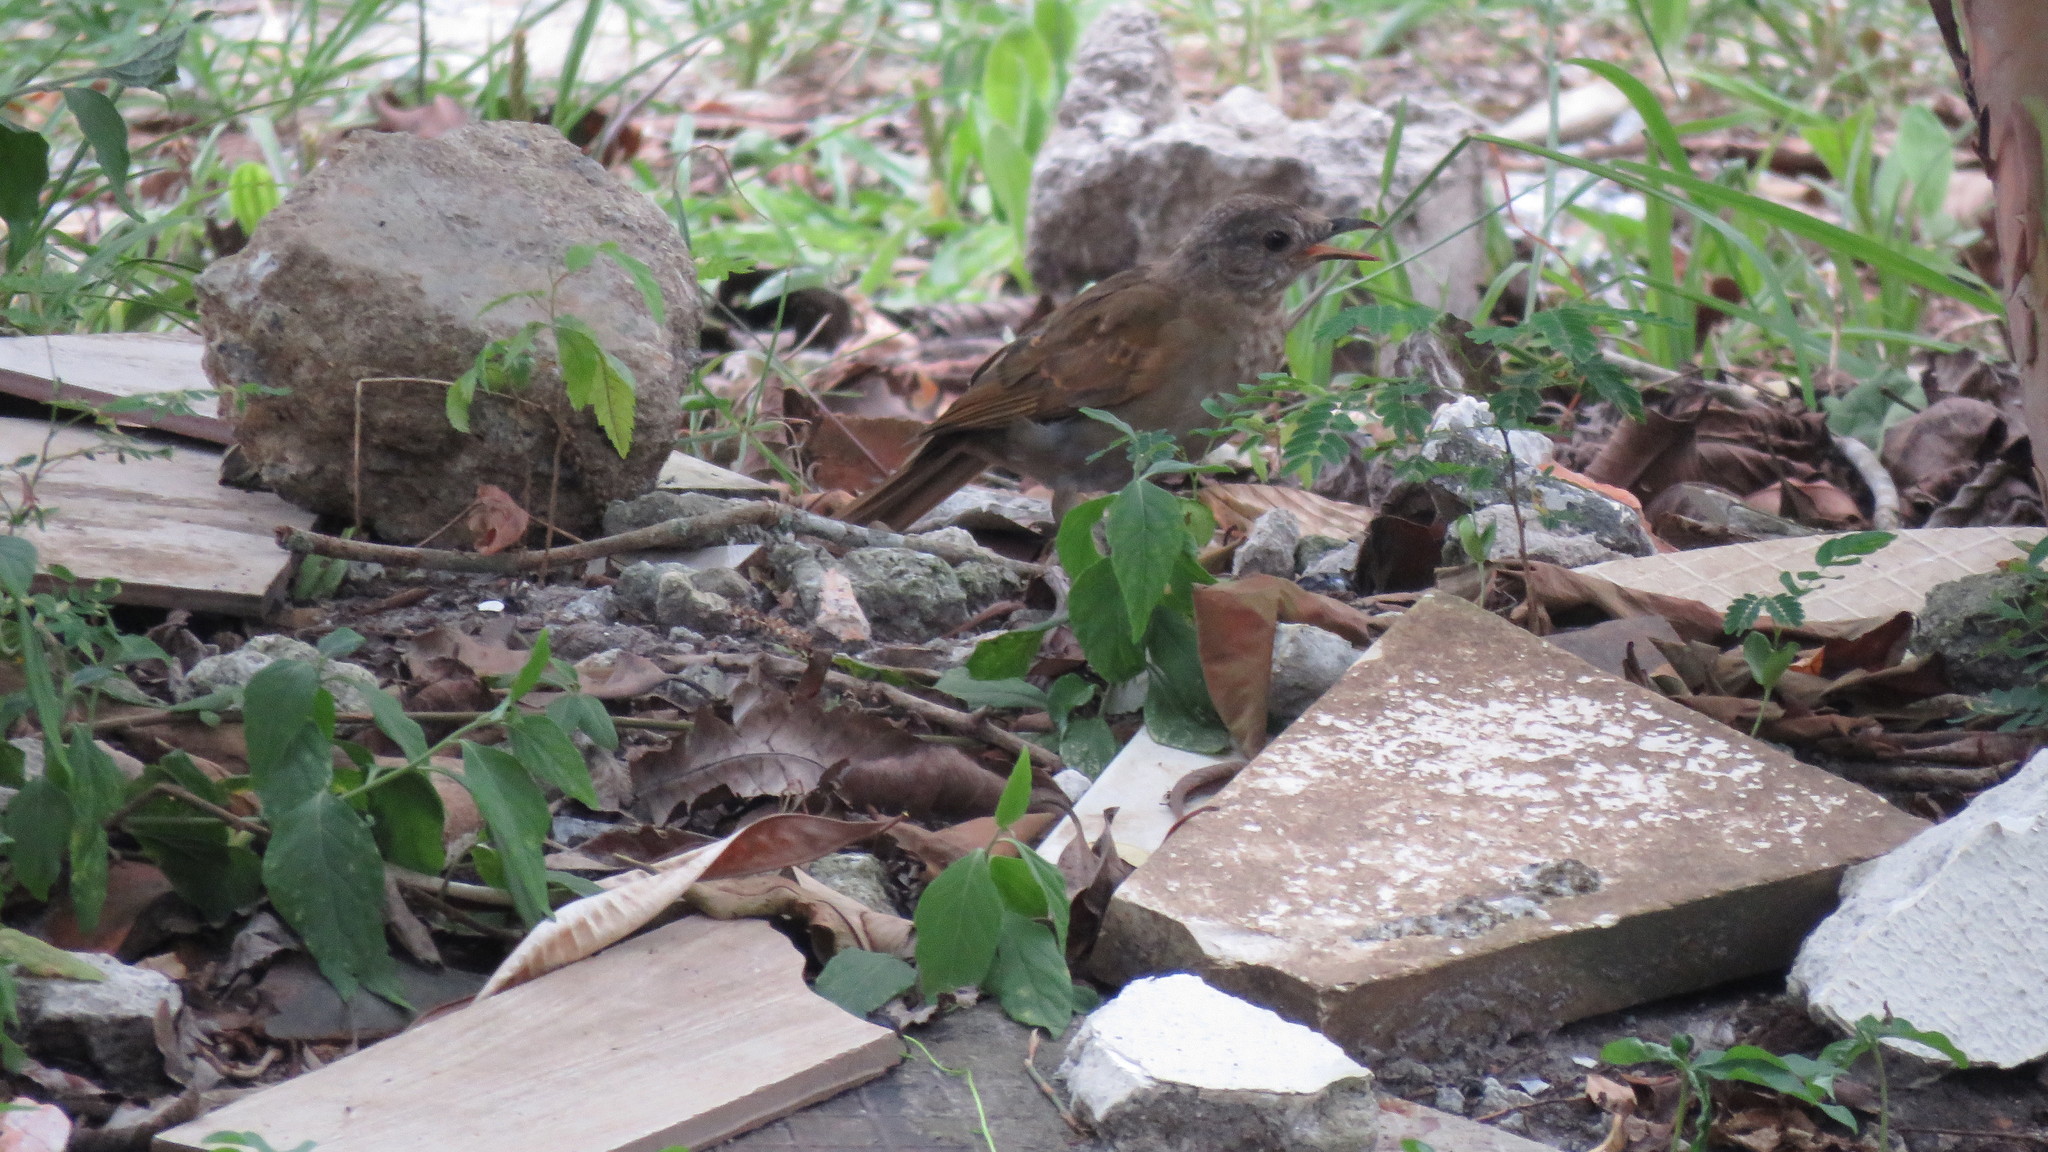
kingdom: Animalia
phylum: Chordata
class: Aves
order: Passeriformes
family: Turdidae
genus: Turdus
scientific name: Turdus leucomelas
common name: Pale-breasted thrush
